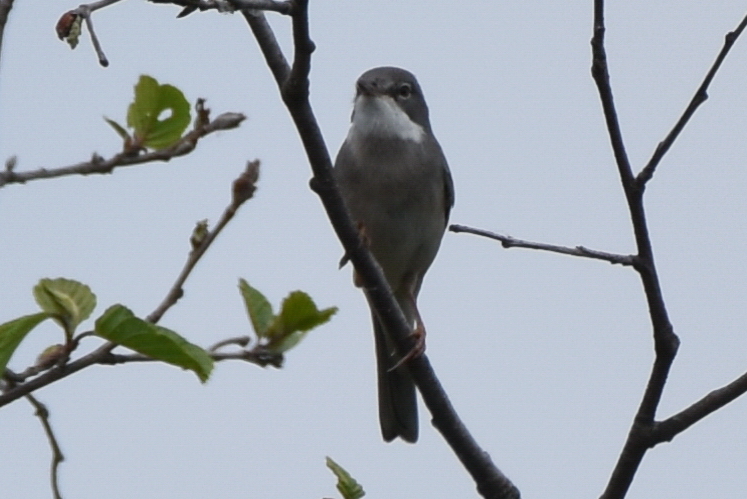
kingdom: Animalia
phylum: Chordata
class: Aves
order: Passeriformes
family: Sylviidae
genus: Sylvia
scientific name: Sylvia communis
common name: Common whitethroat
